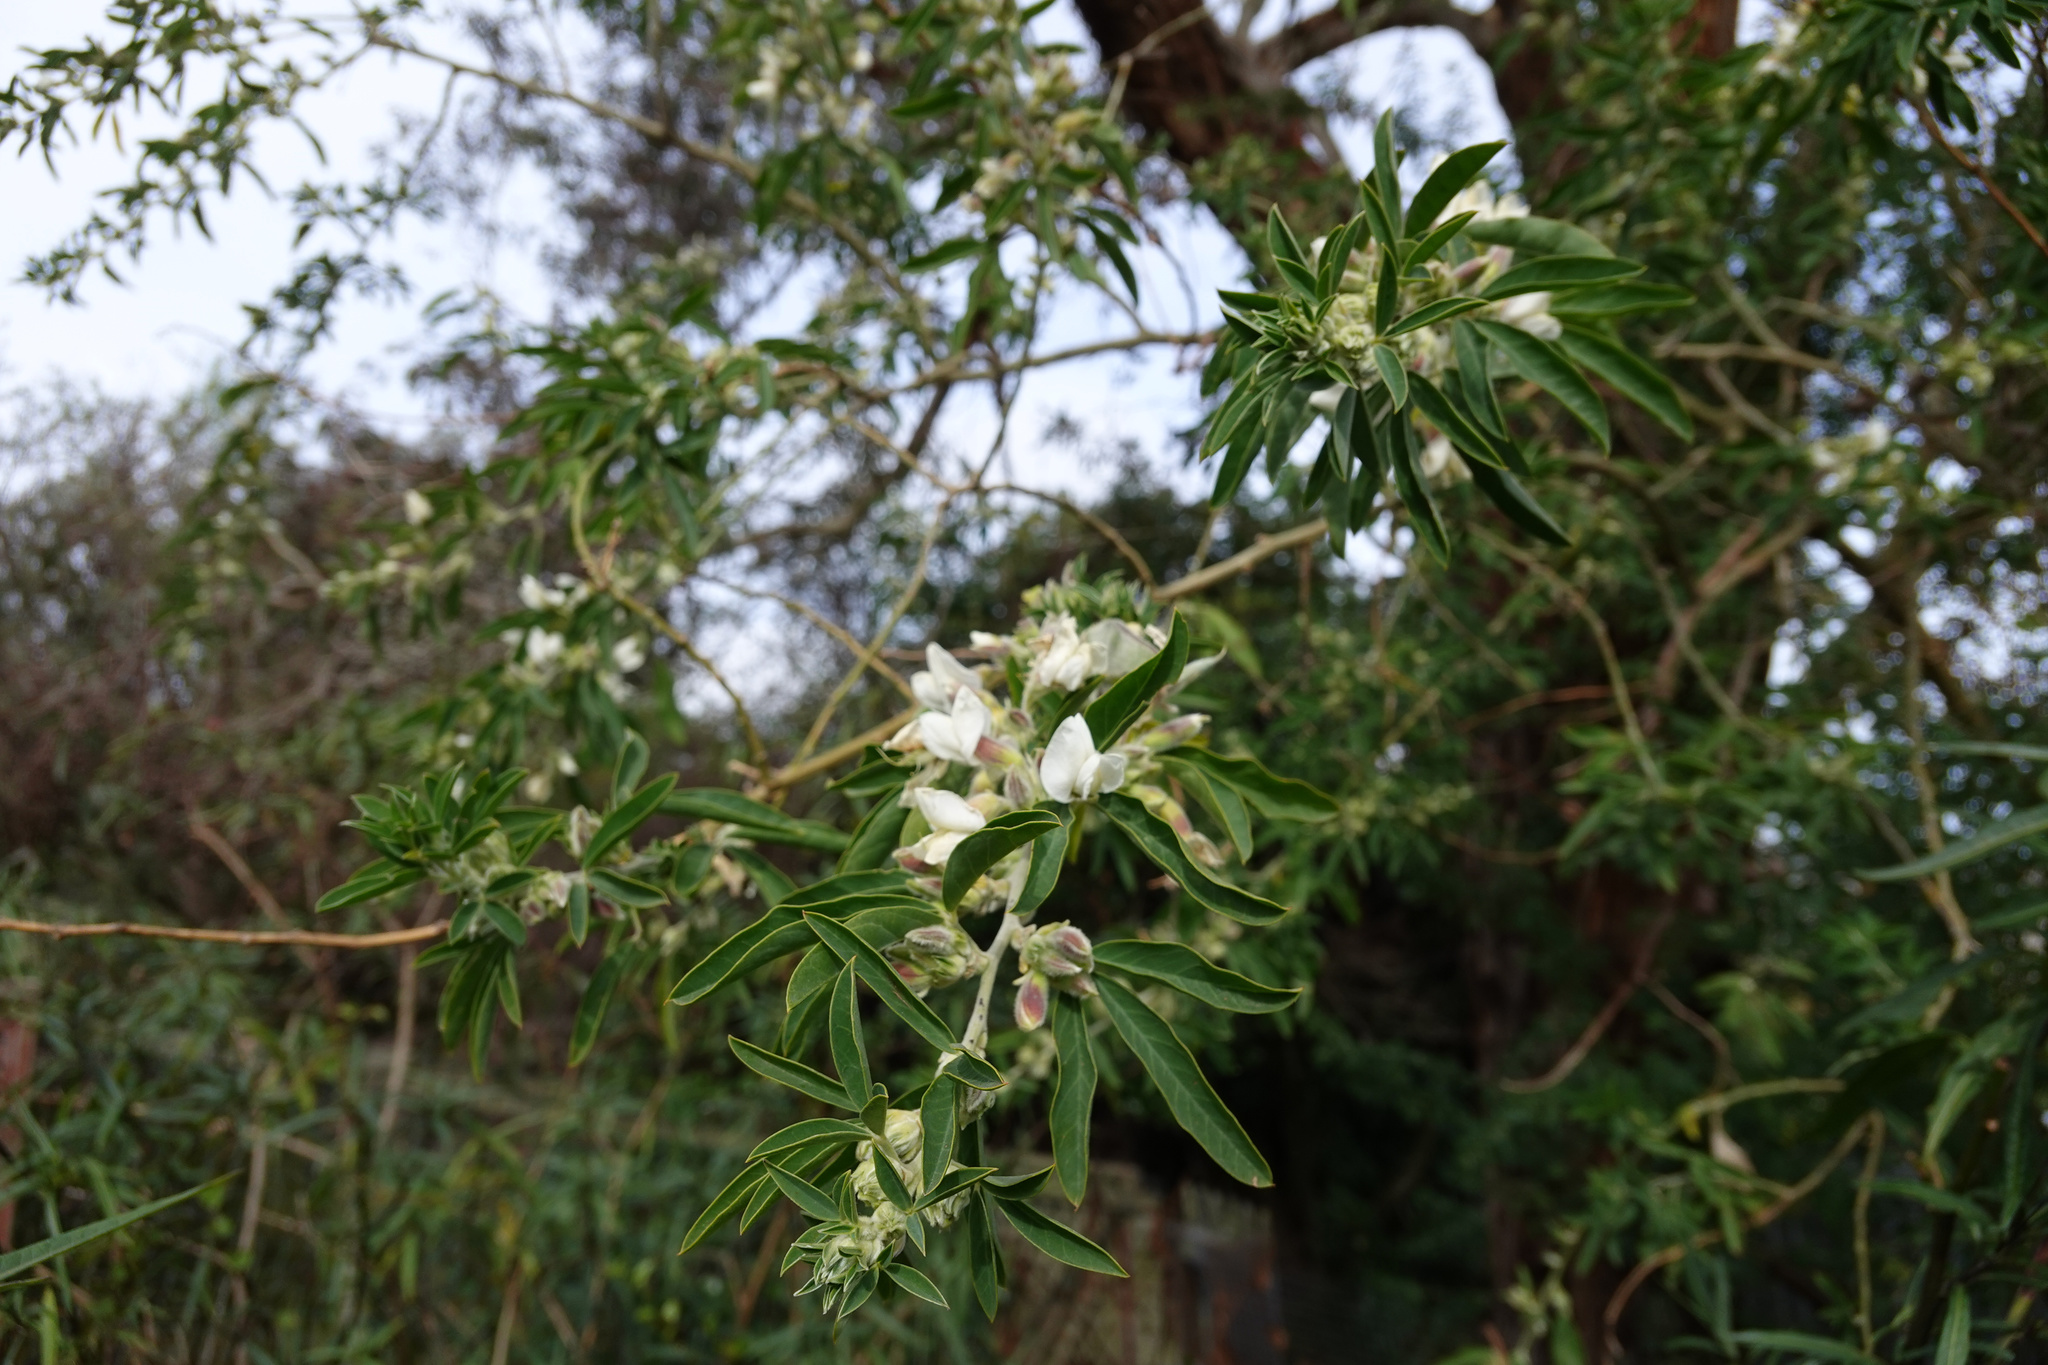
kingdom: Plantae
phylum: Tracheophyta
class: Magnoliopsida
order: Fabales
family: Fabaceae
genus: Chamaecytisus
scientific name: Chamaecytisus prolifer
